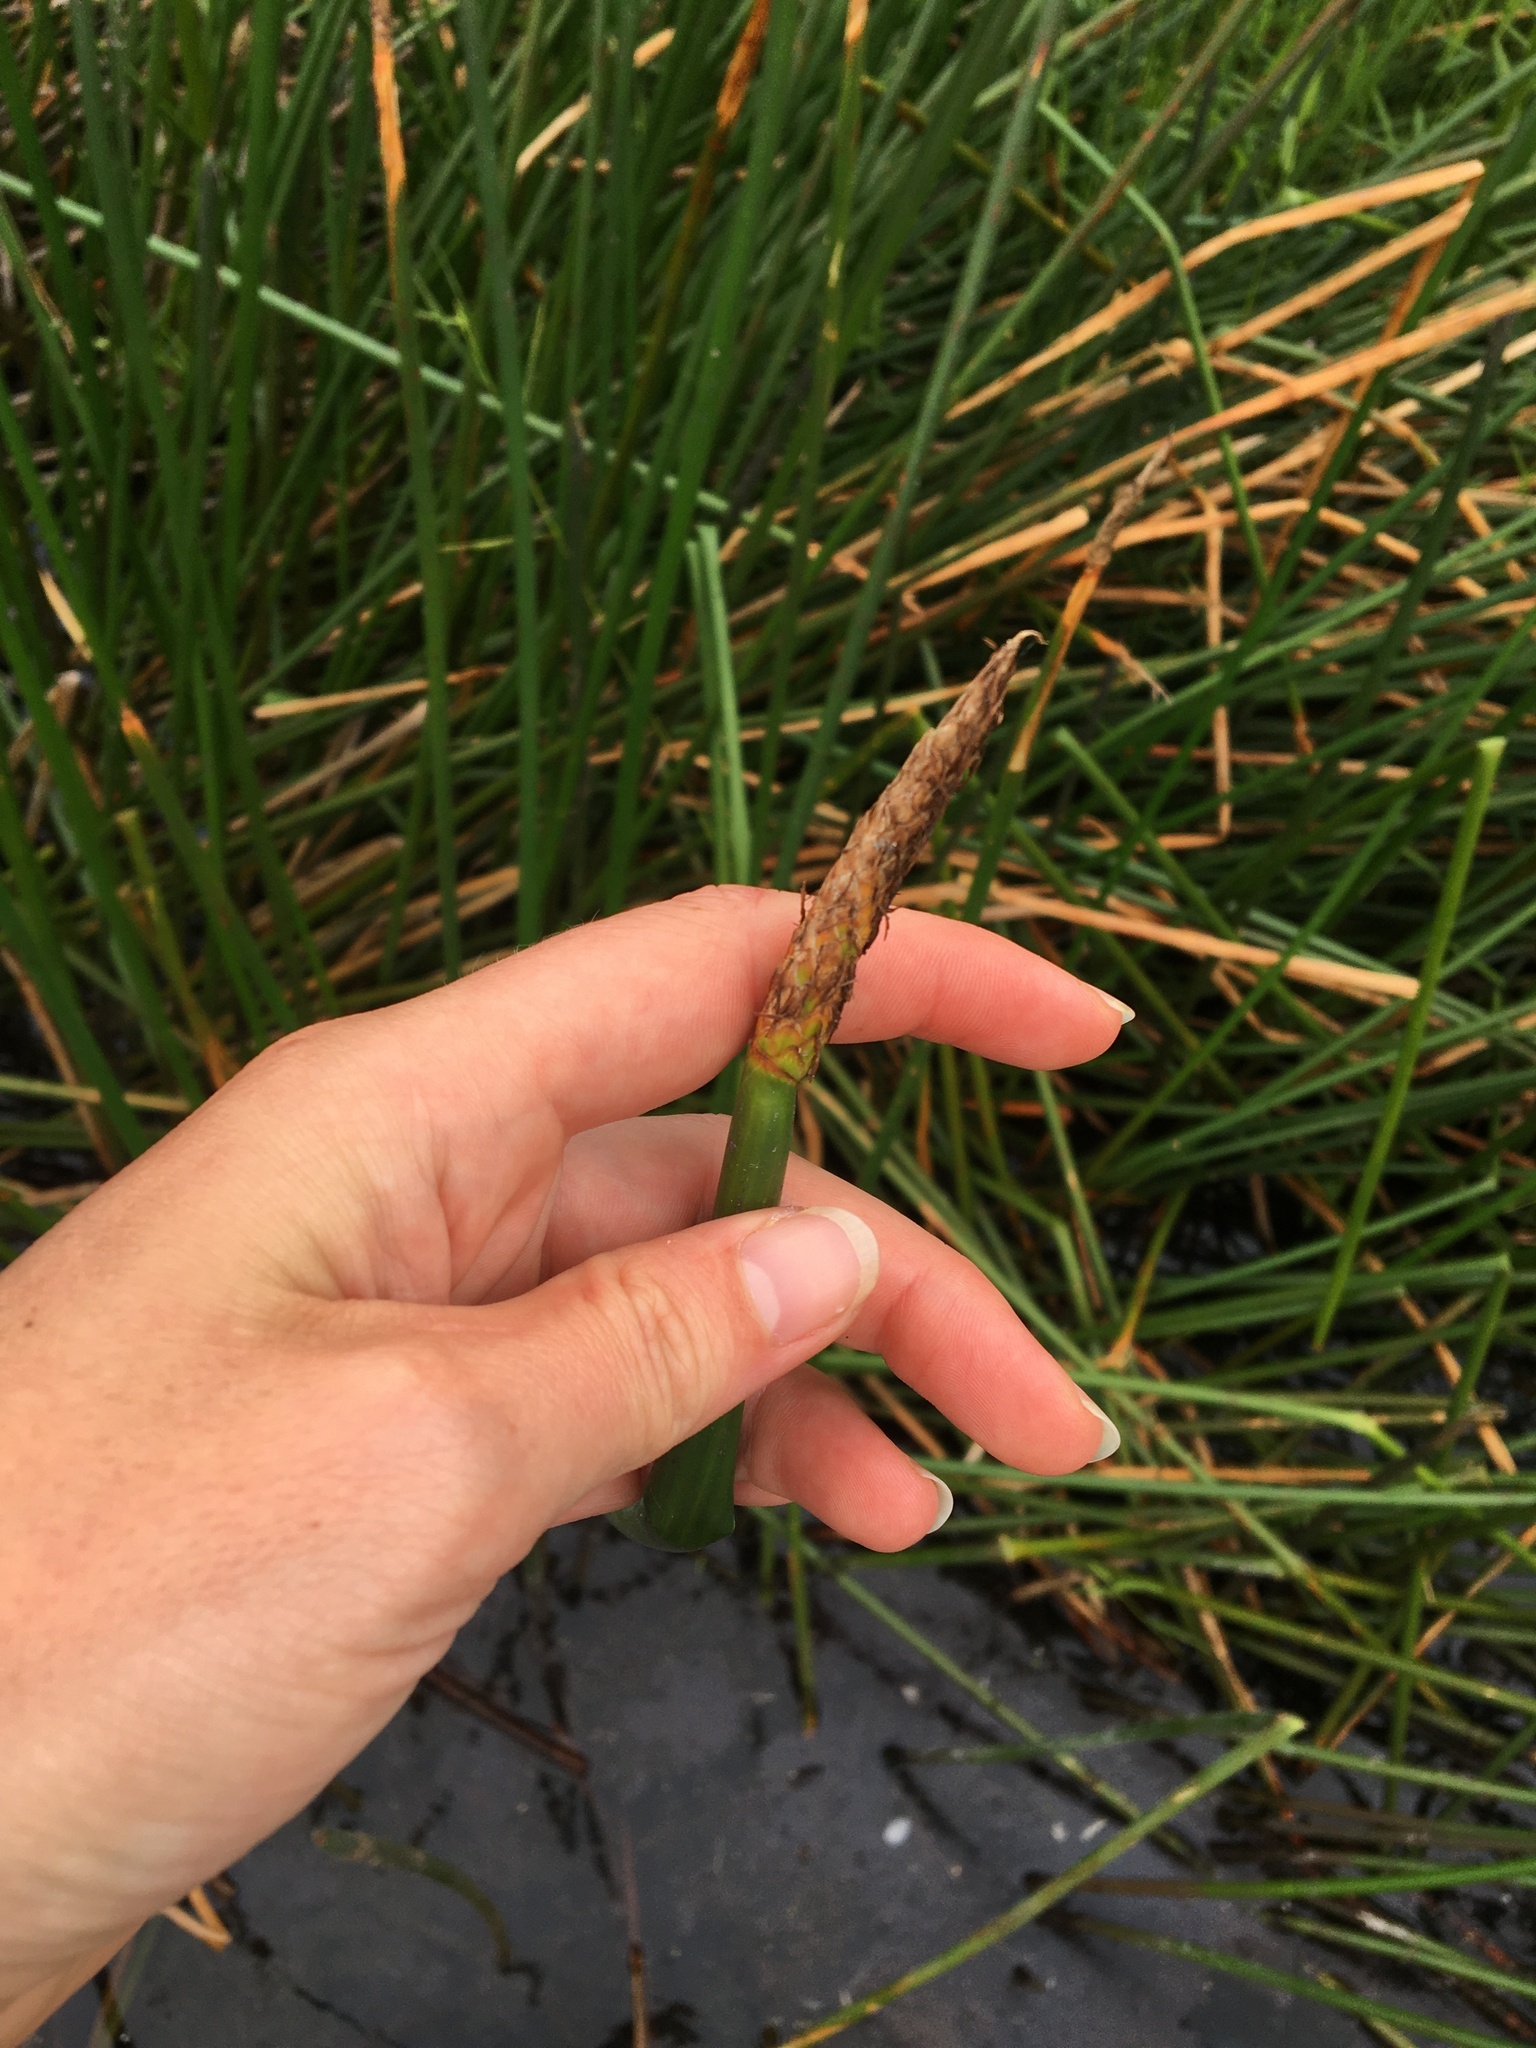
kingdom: Plantae
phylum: Tracheophyta
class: Liliopsida
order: Poales
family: Cyperaceae
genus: Eleocharis
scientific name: Eleocharis sphacelata
